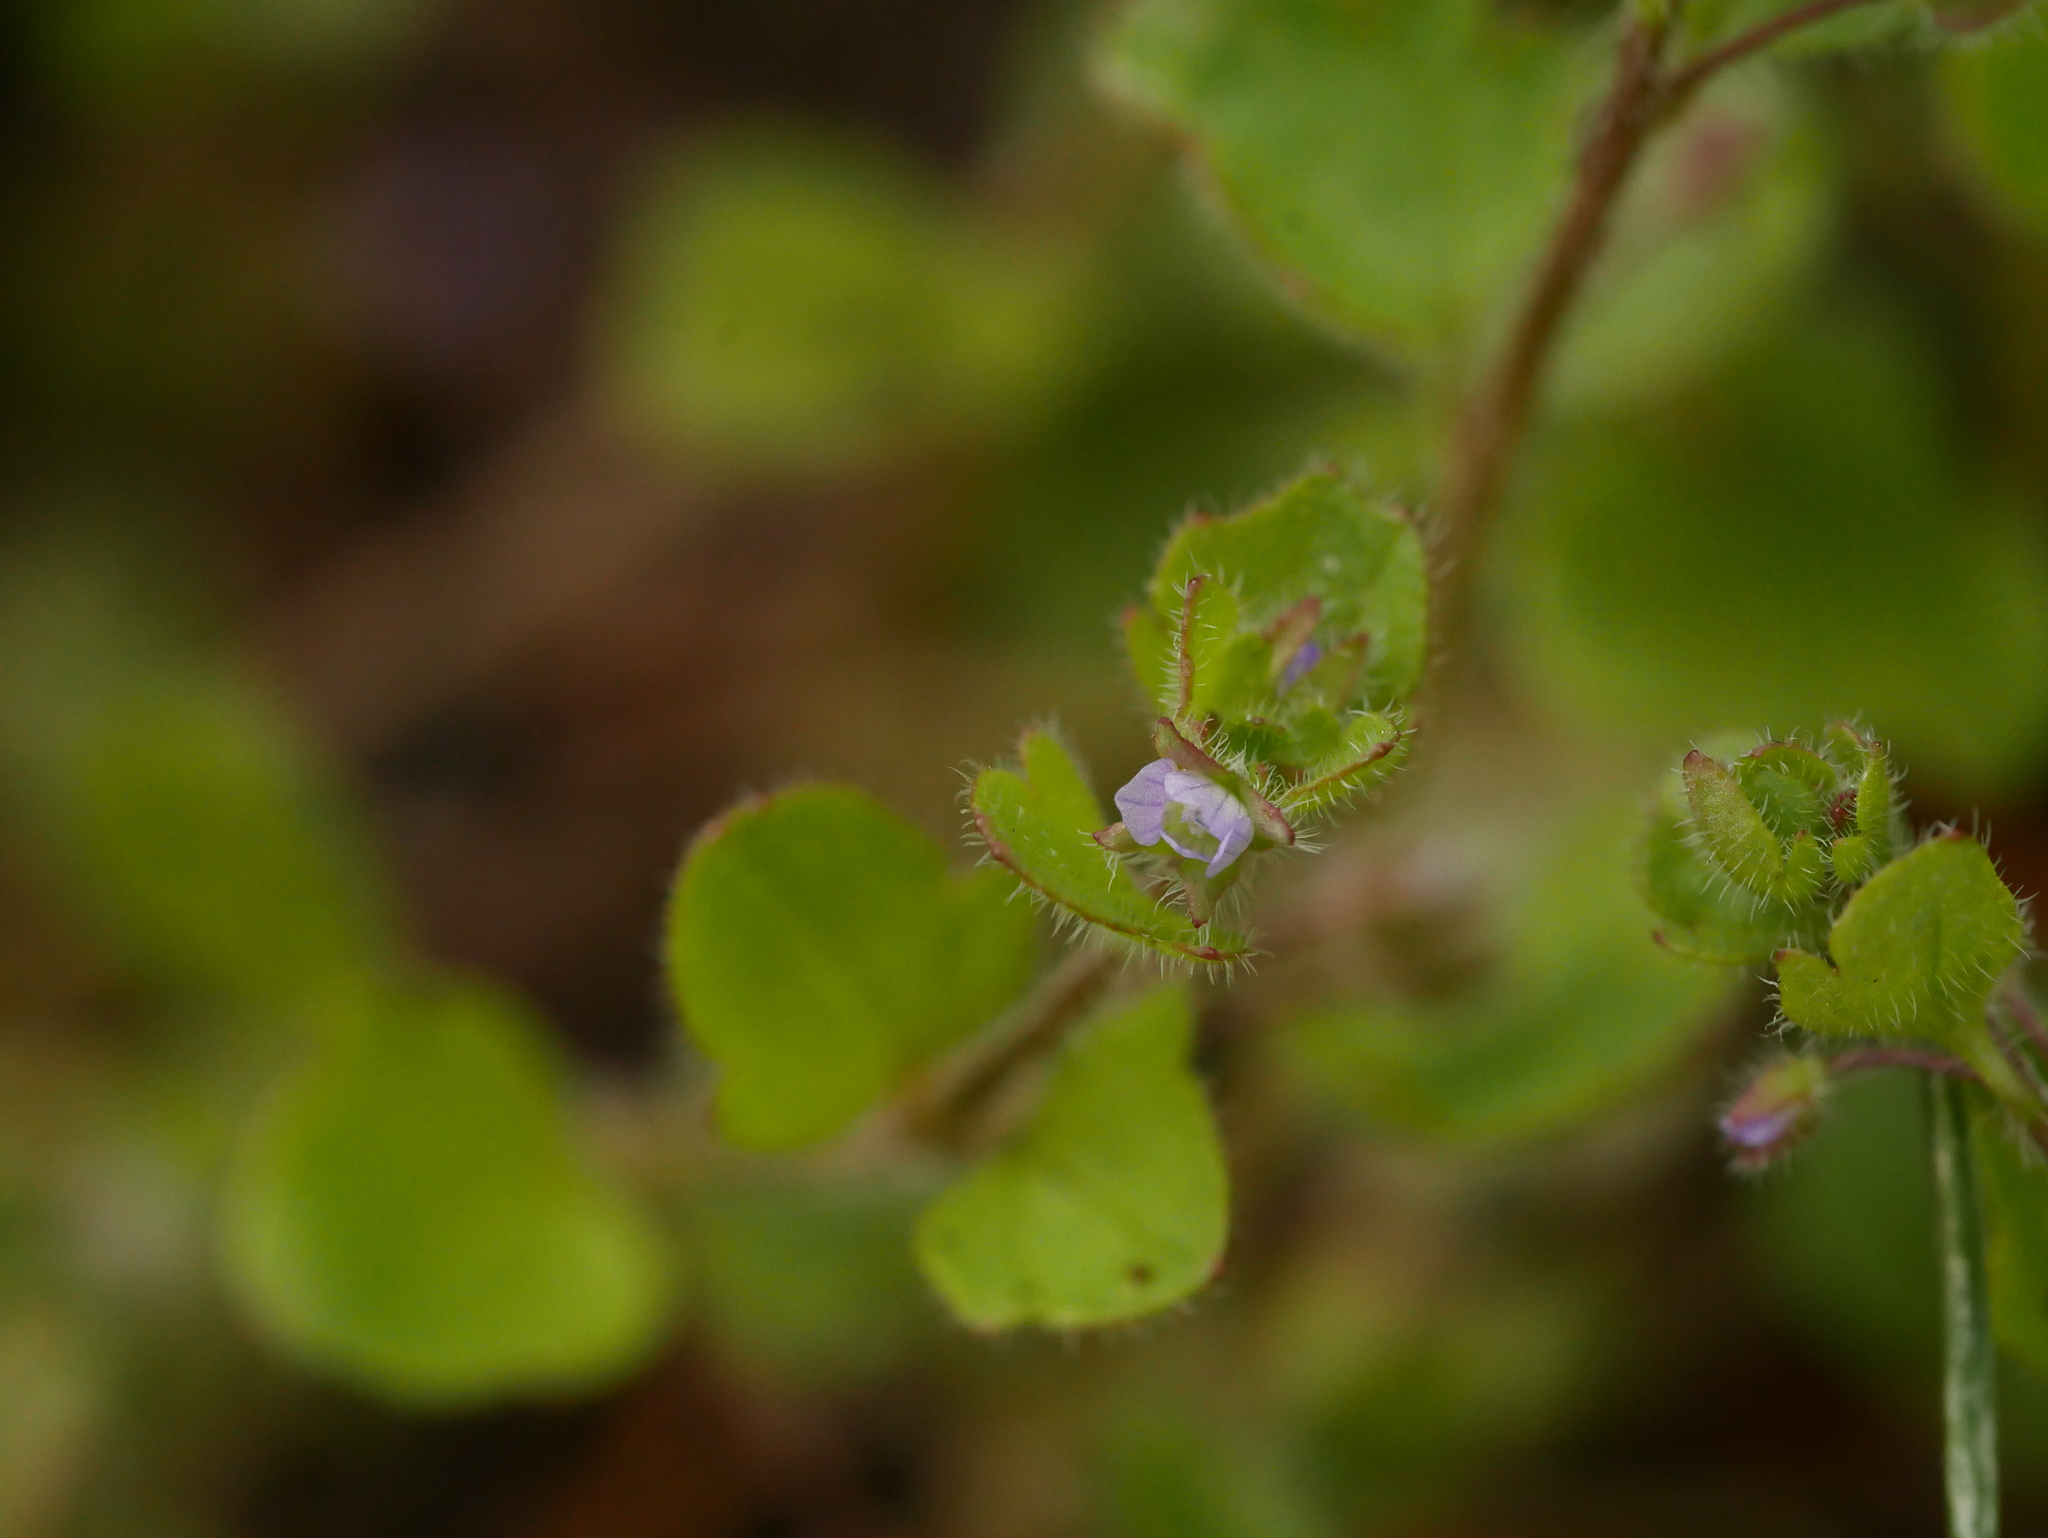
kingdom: Plantae
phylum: Tracheophyta
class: Magnoliopsida
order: Lamiales
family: Plantaginaceae
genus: Veronica
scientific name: Veronica sublobata
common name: False ivy-leaved speedwell
